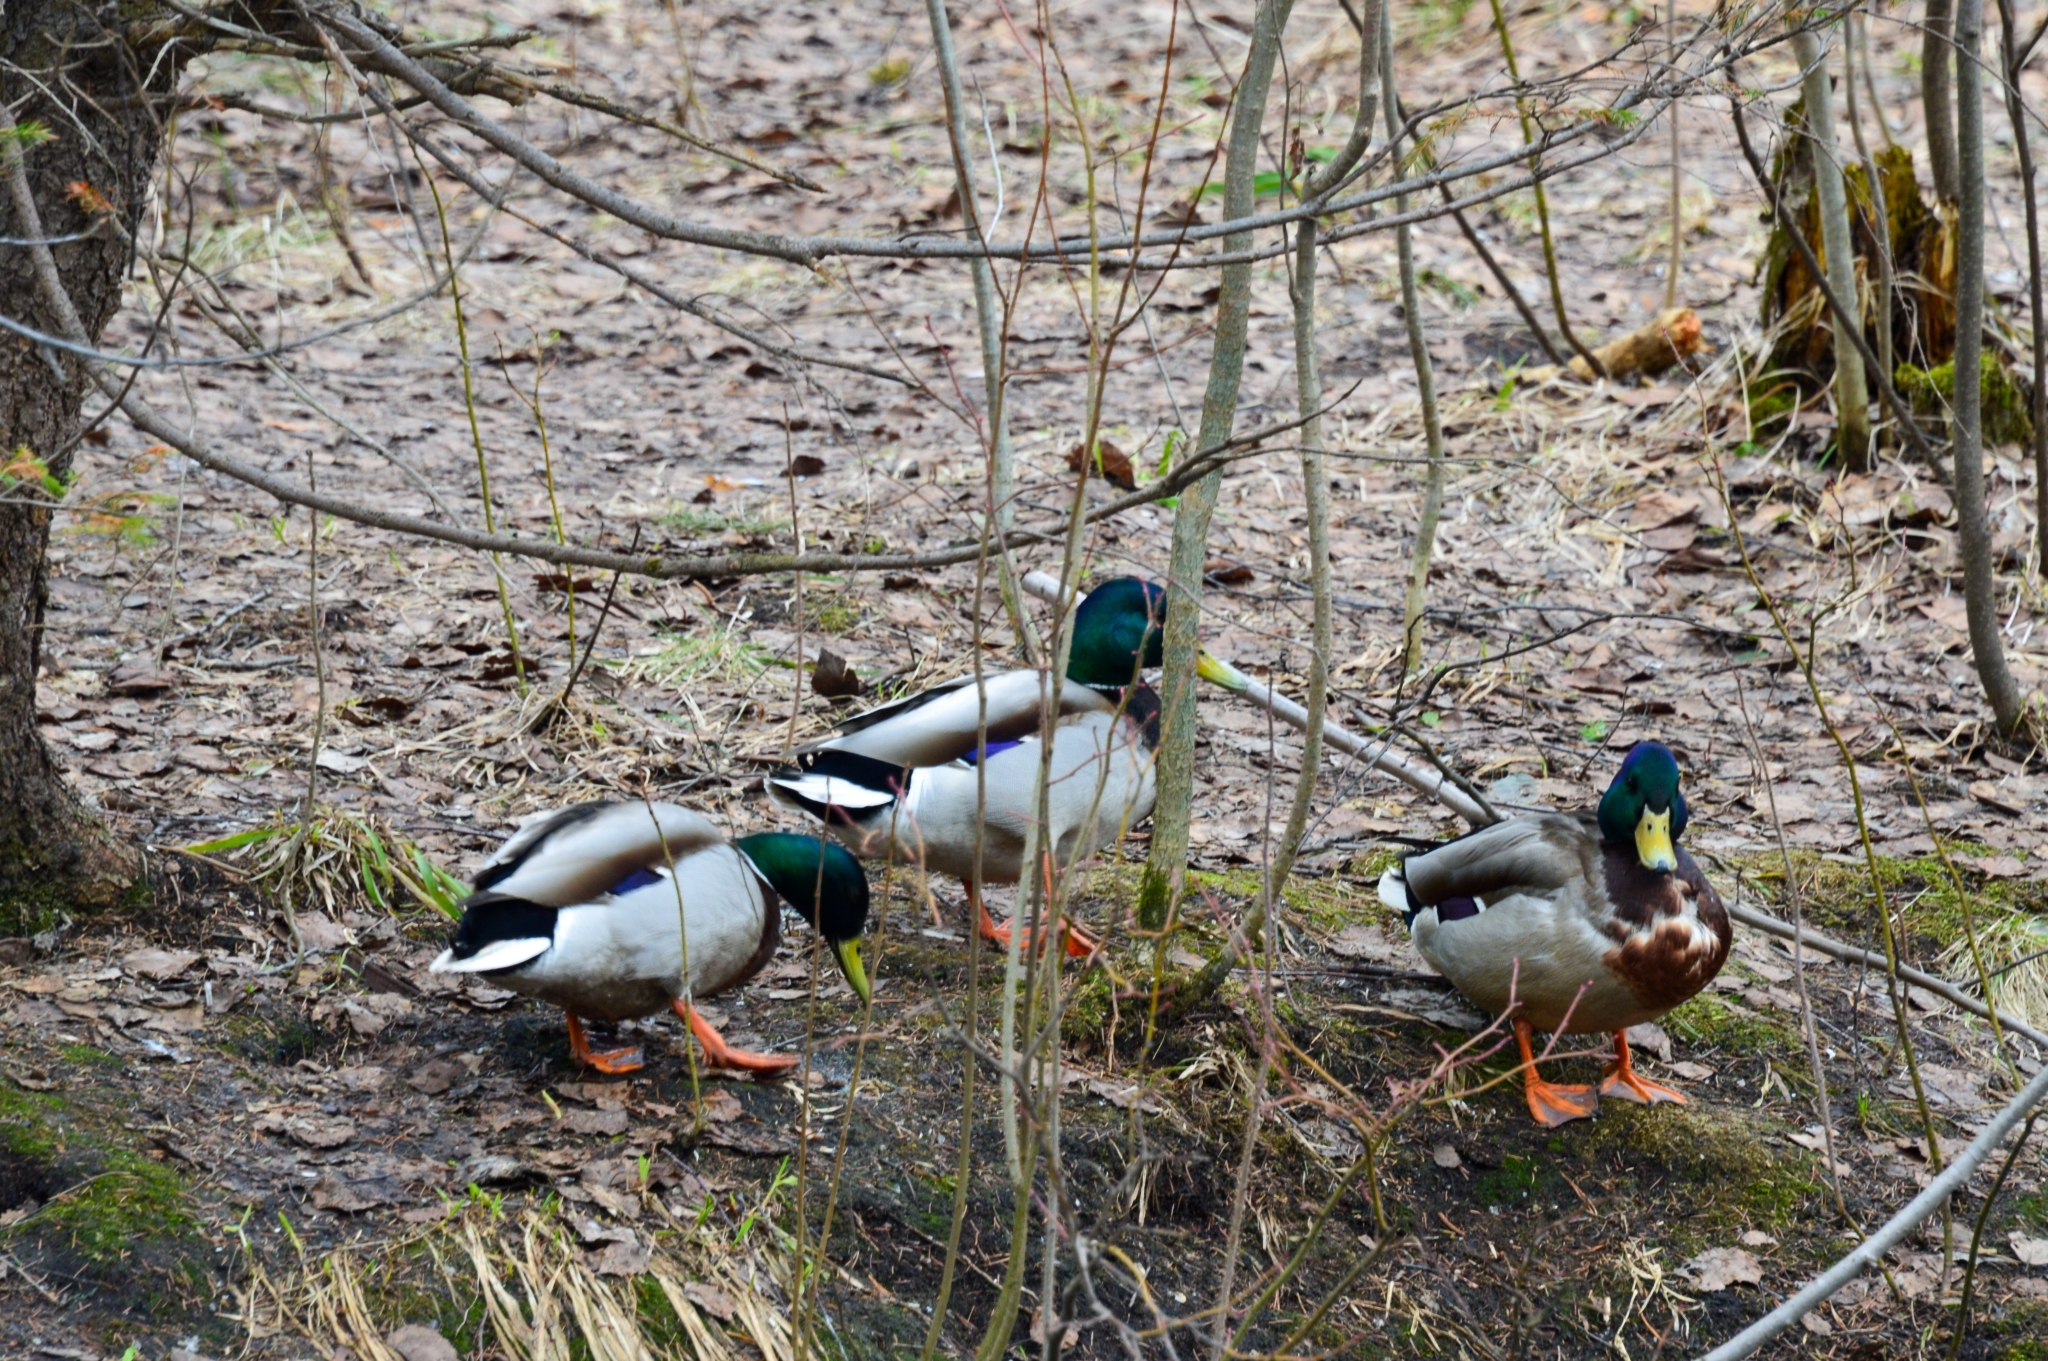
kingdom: Animalia
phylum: Chordata
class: Aves
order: Anseriformes
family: Anatidae
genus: Anas
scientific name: Anas platyrhynchos
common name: Mallard
